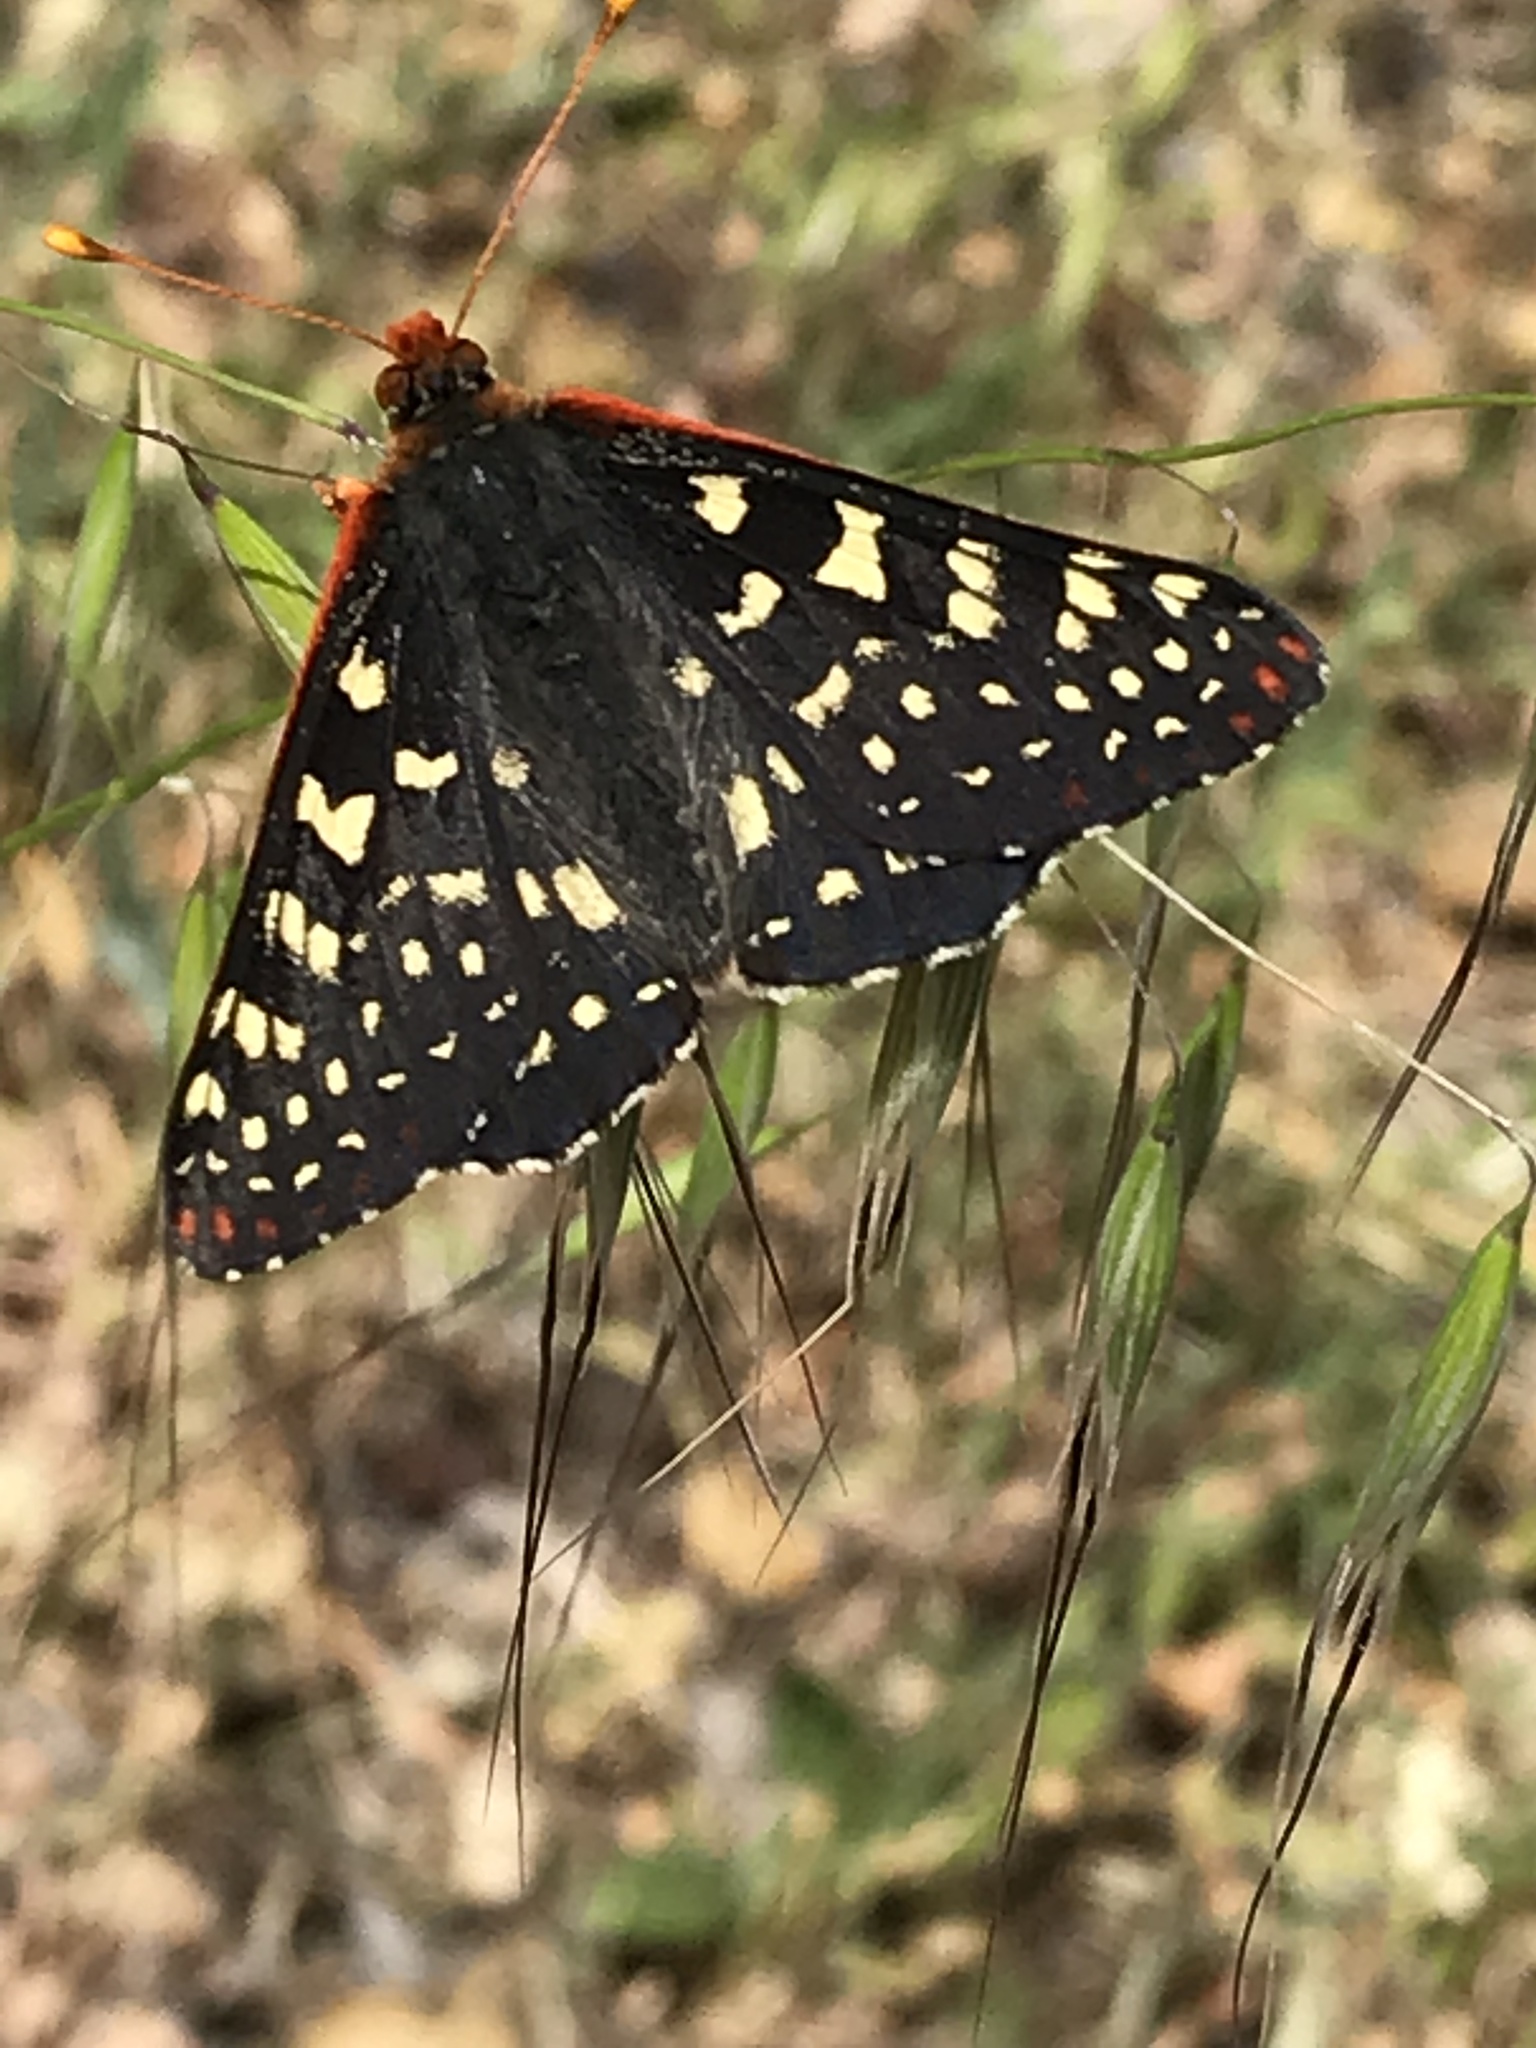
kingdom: Animalia
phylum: Arthropoda
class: Insecta
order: Lepidoptera
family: Nymphalidae
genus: Occidryas
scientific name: Occidryas chalcedona
